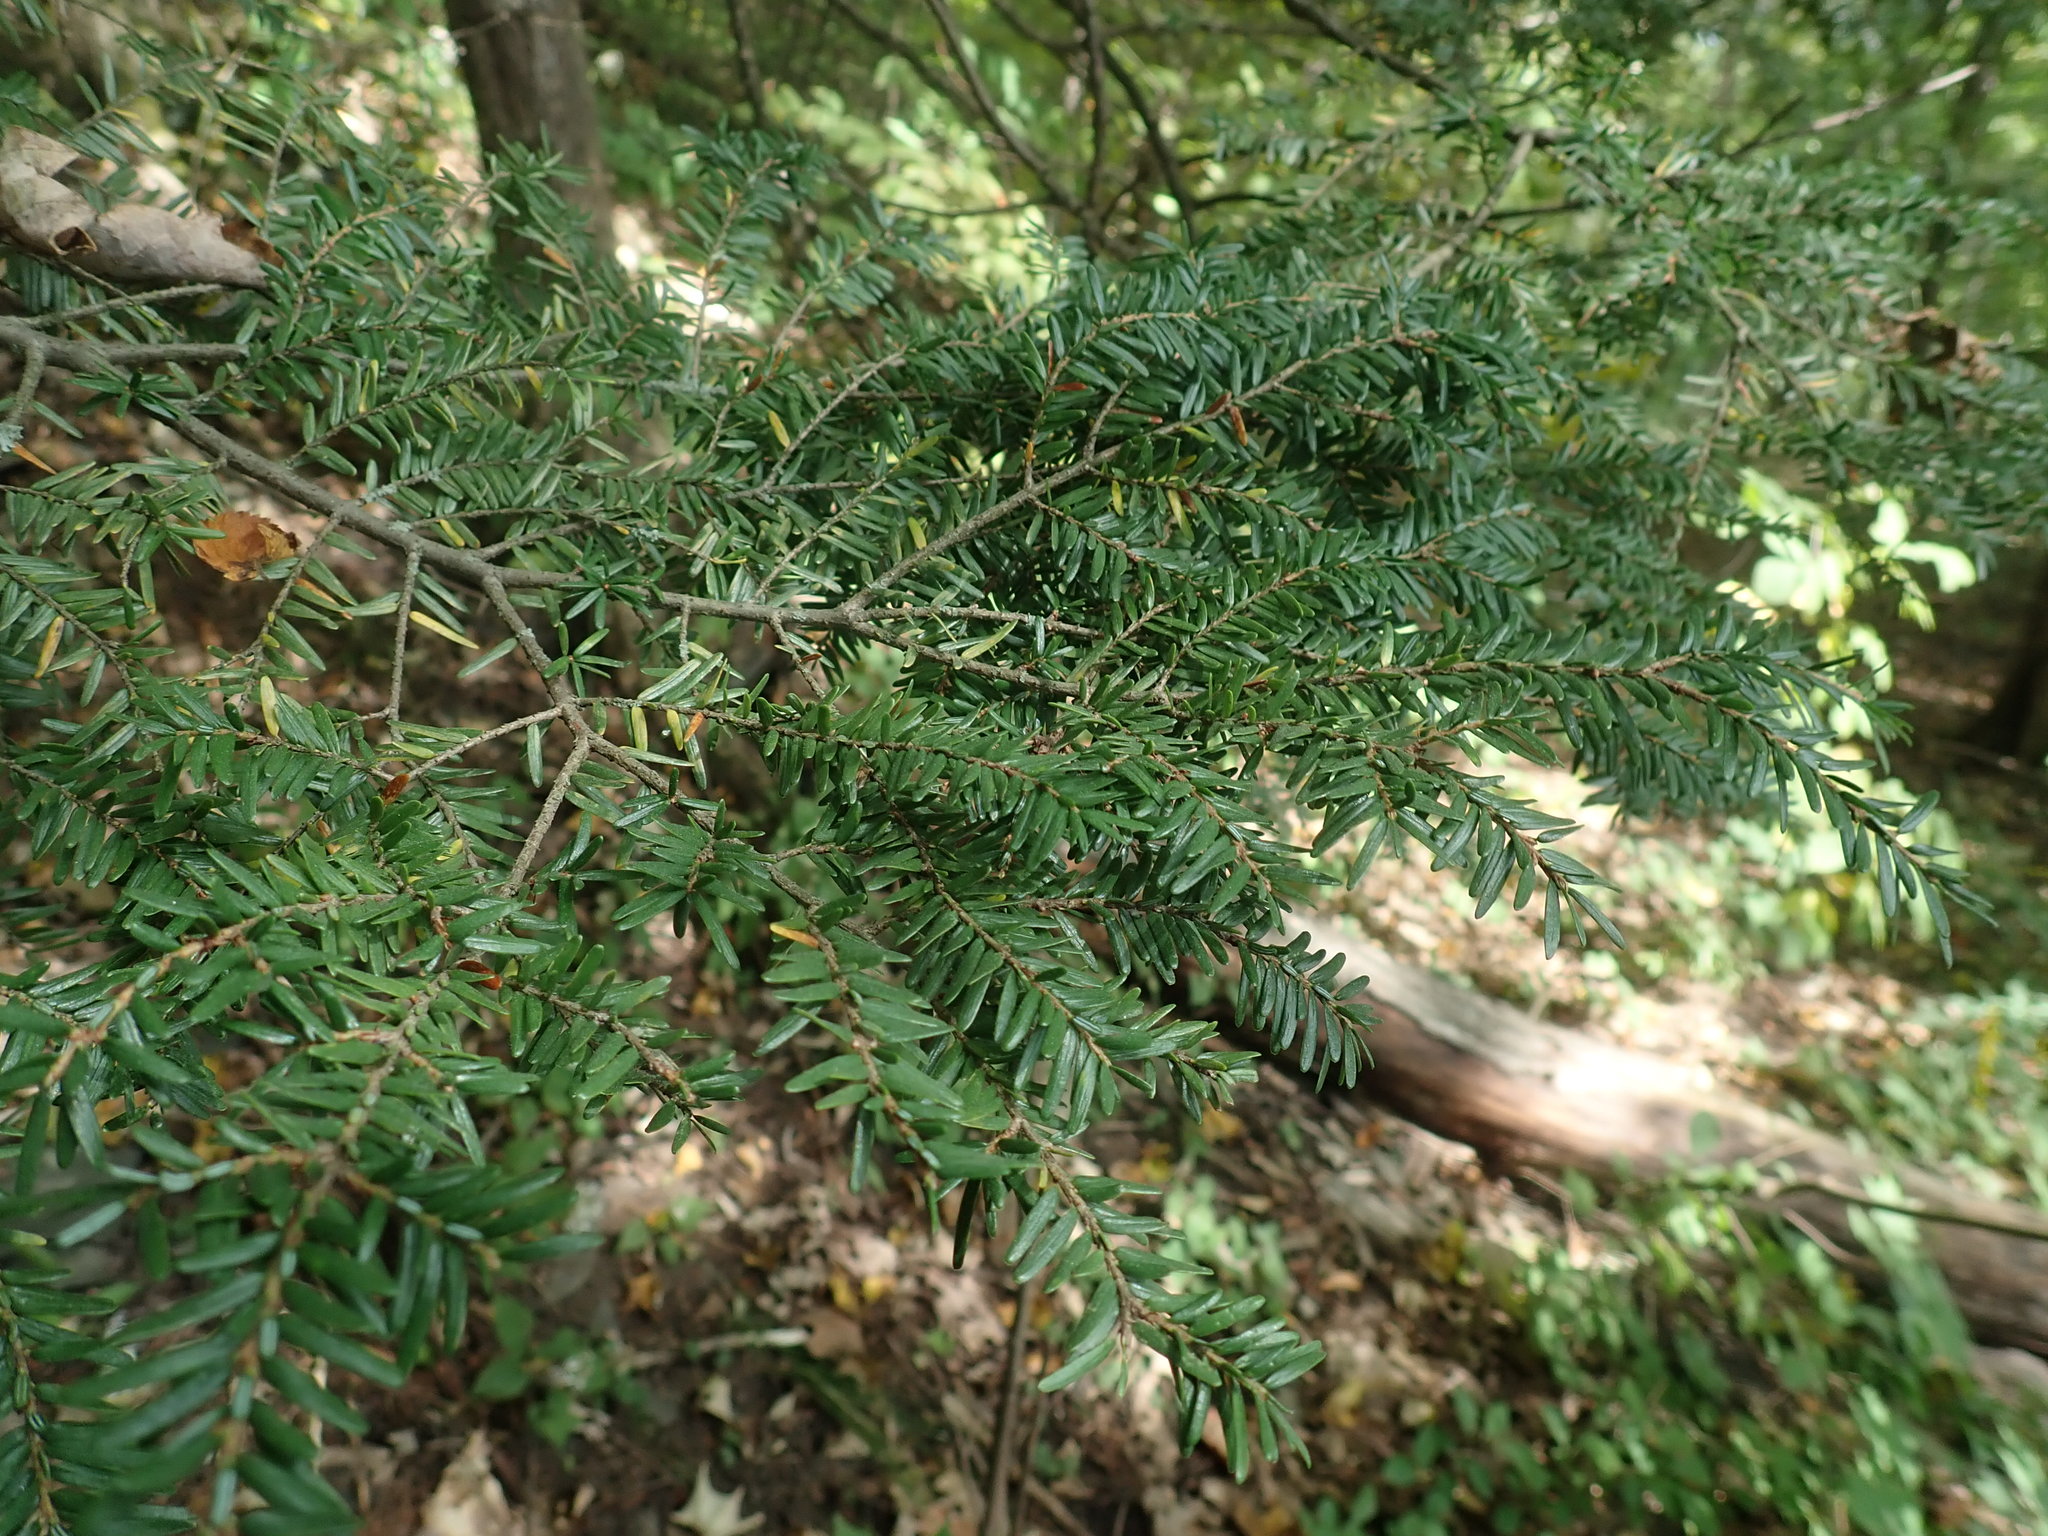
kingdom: Plantae
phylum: Tracheophyta
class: Pinopsida
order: Pinales
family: Pinaceae
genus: Tsuga
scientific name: Tsuga canadensis
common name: Eastern hemlock
